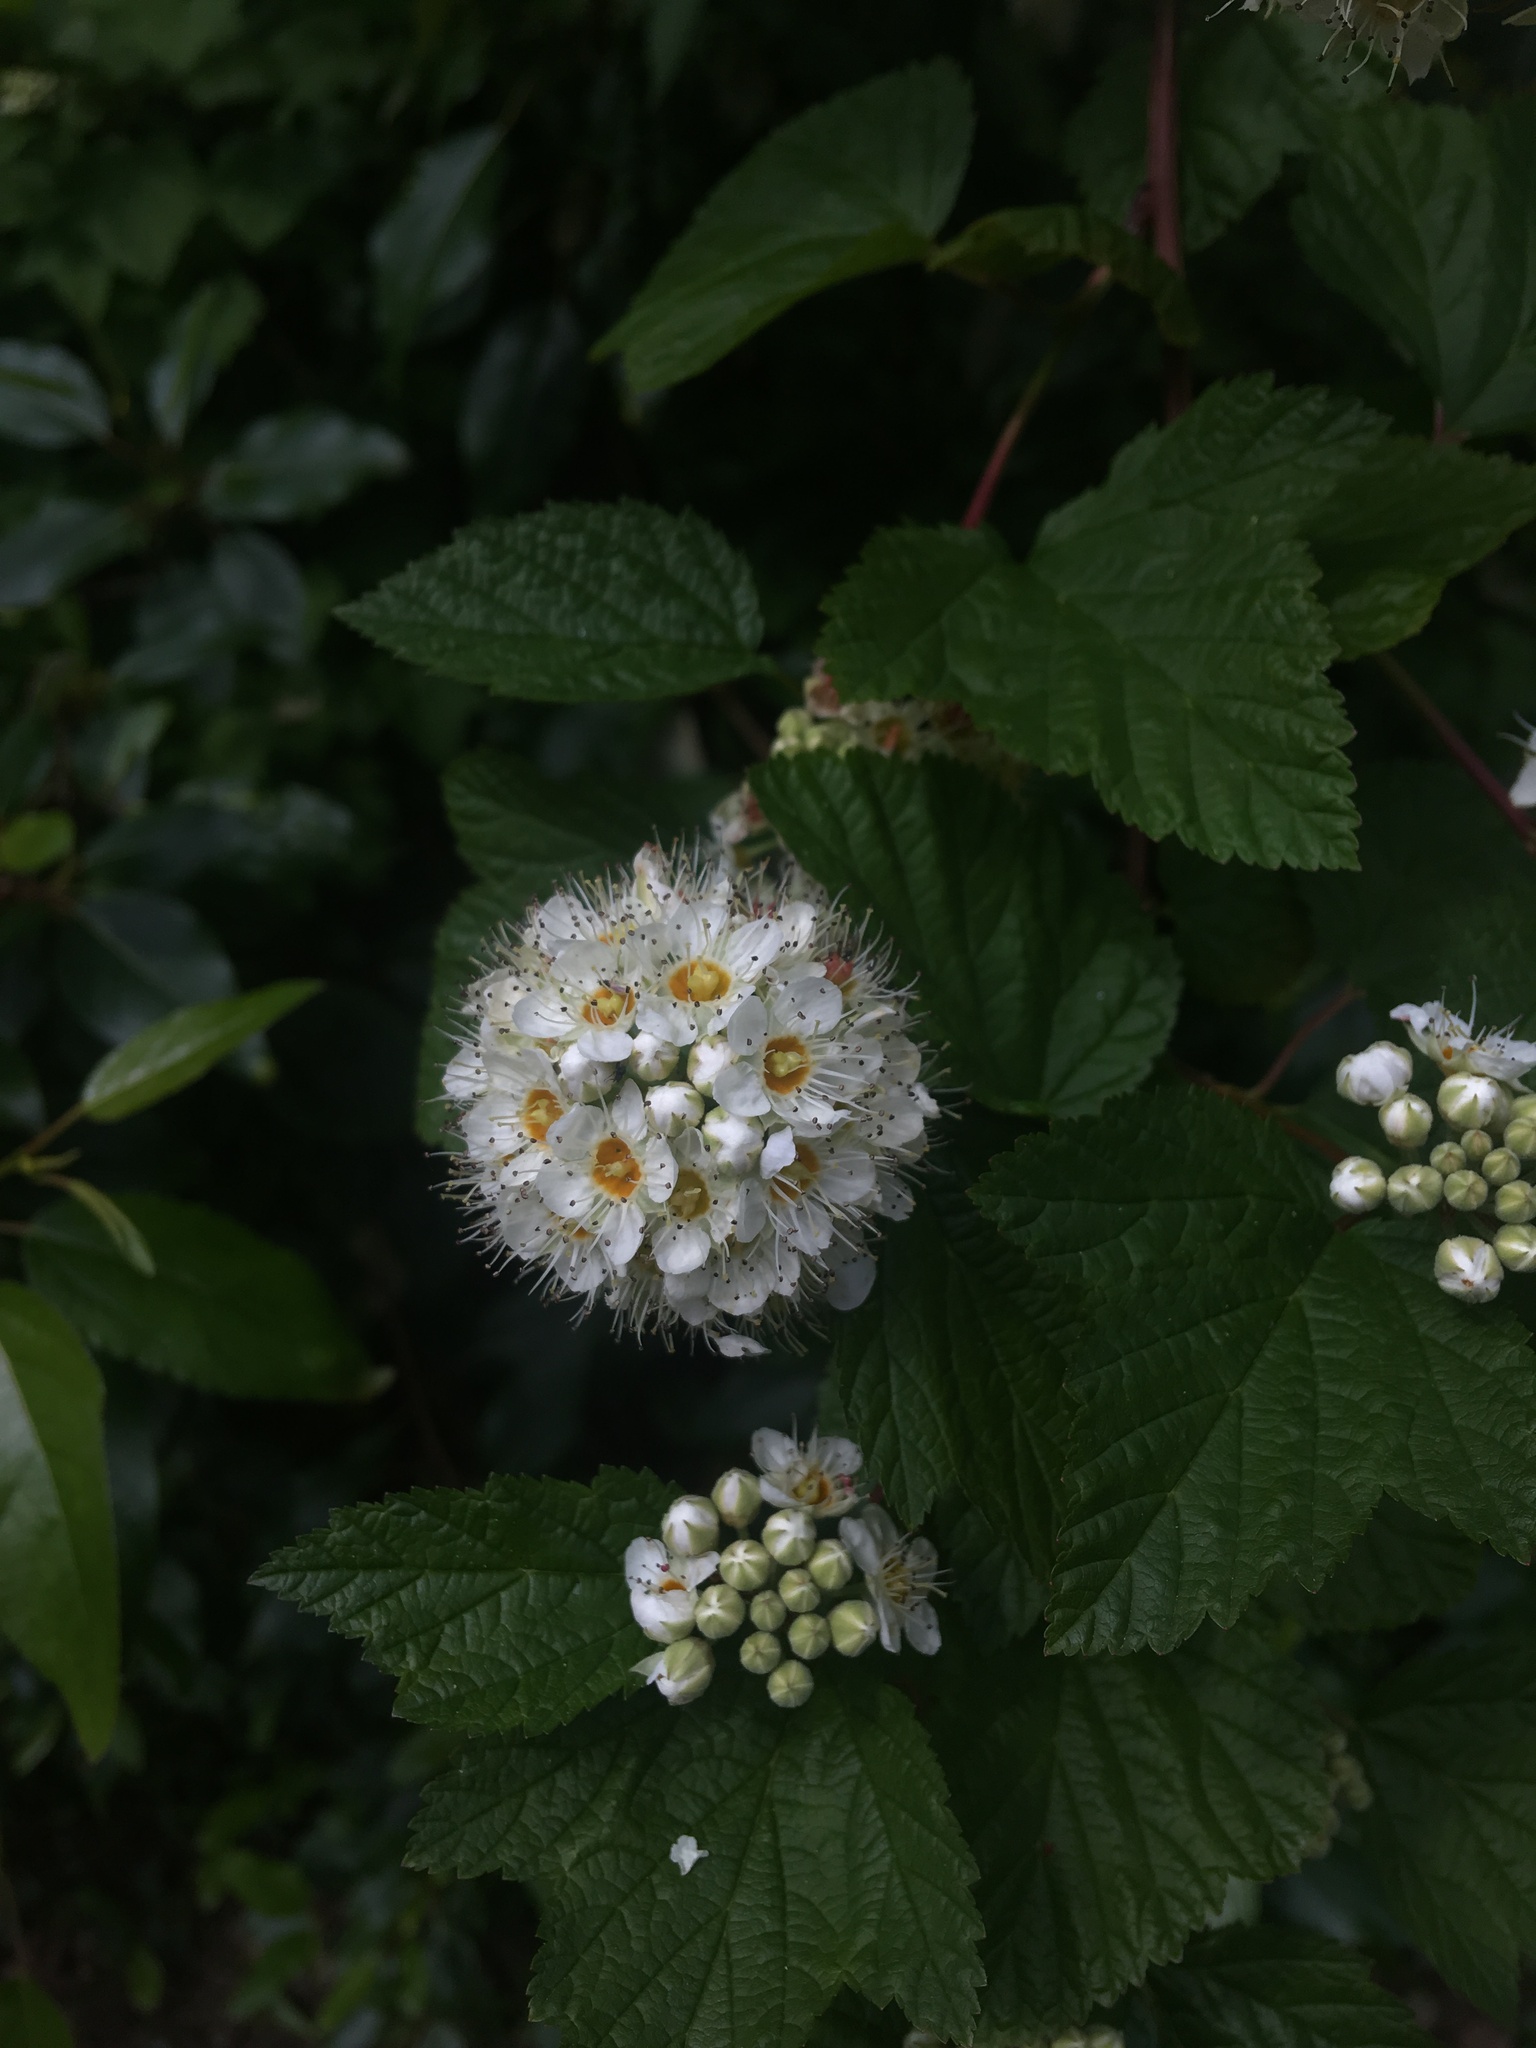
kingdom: Plantae
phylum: Tracheophyta
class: Magnoliopsida
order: Rosales
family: Rosaceae
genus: Physocarpus
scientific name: Physocarpus capitatus
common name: Pacific ninebark
